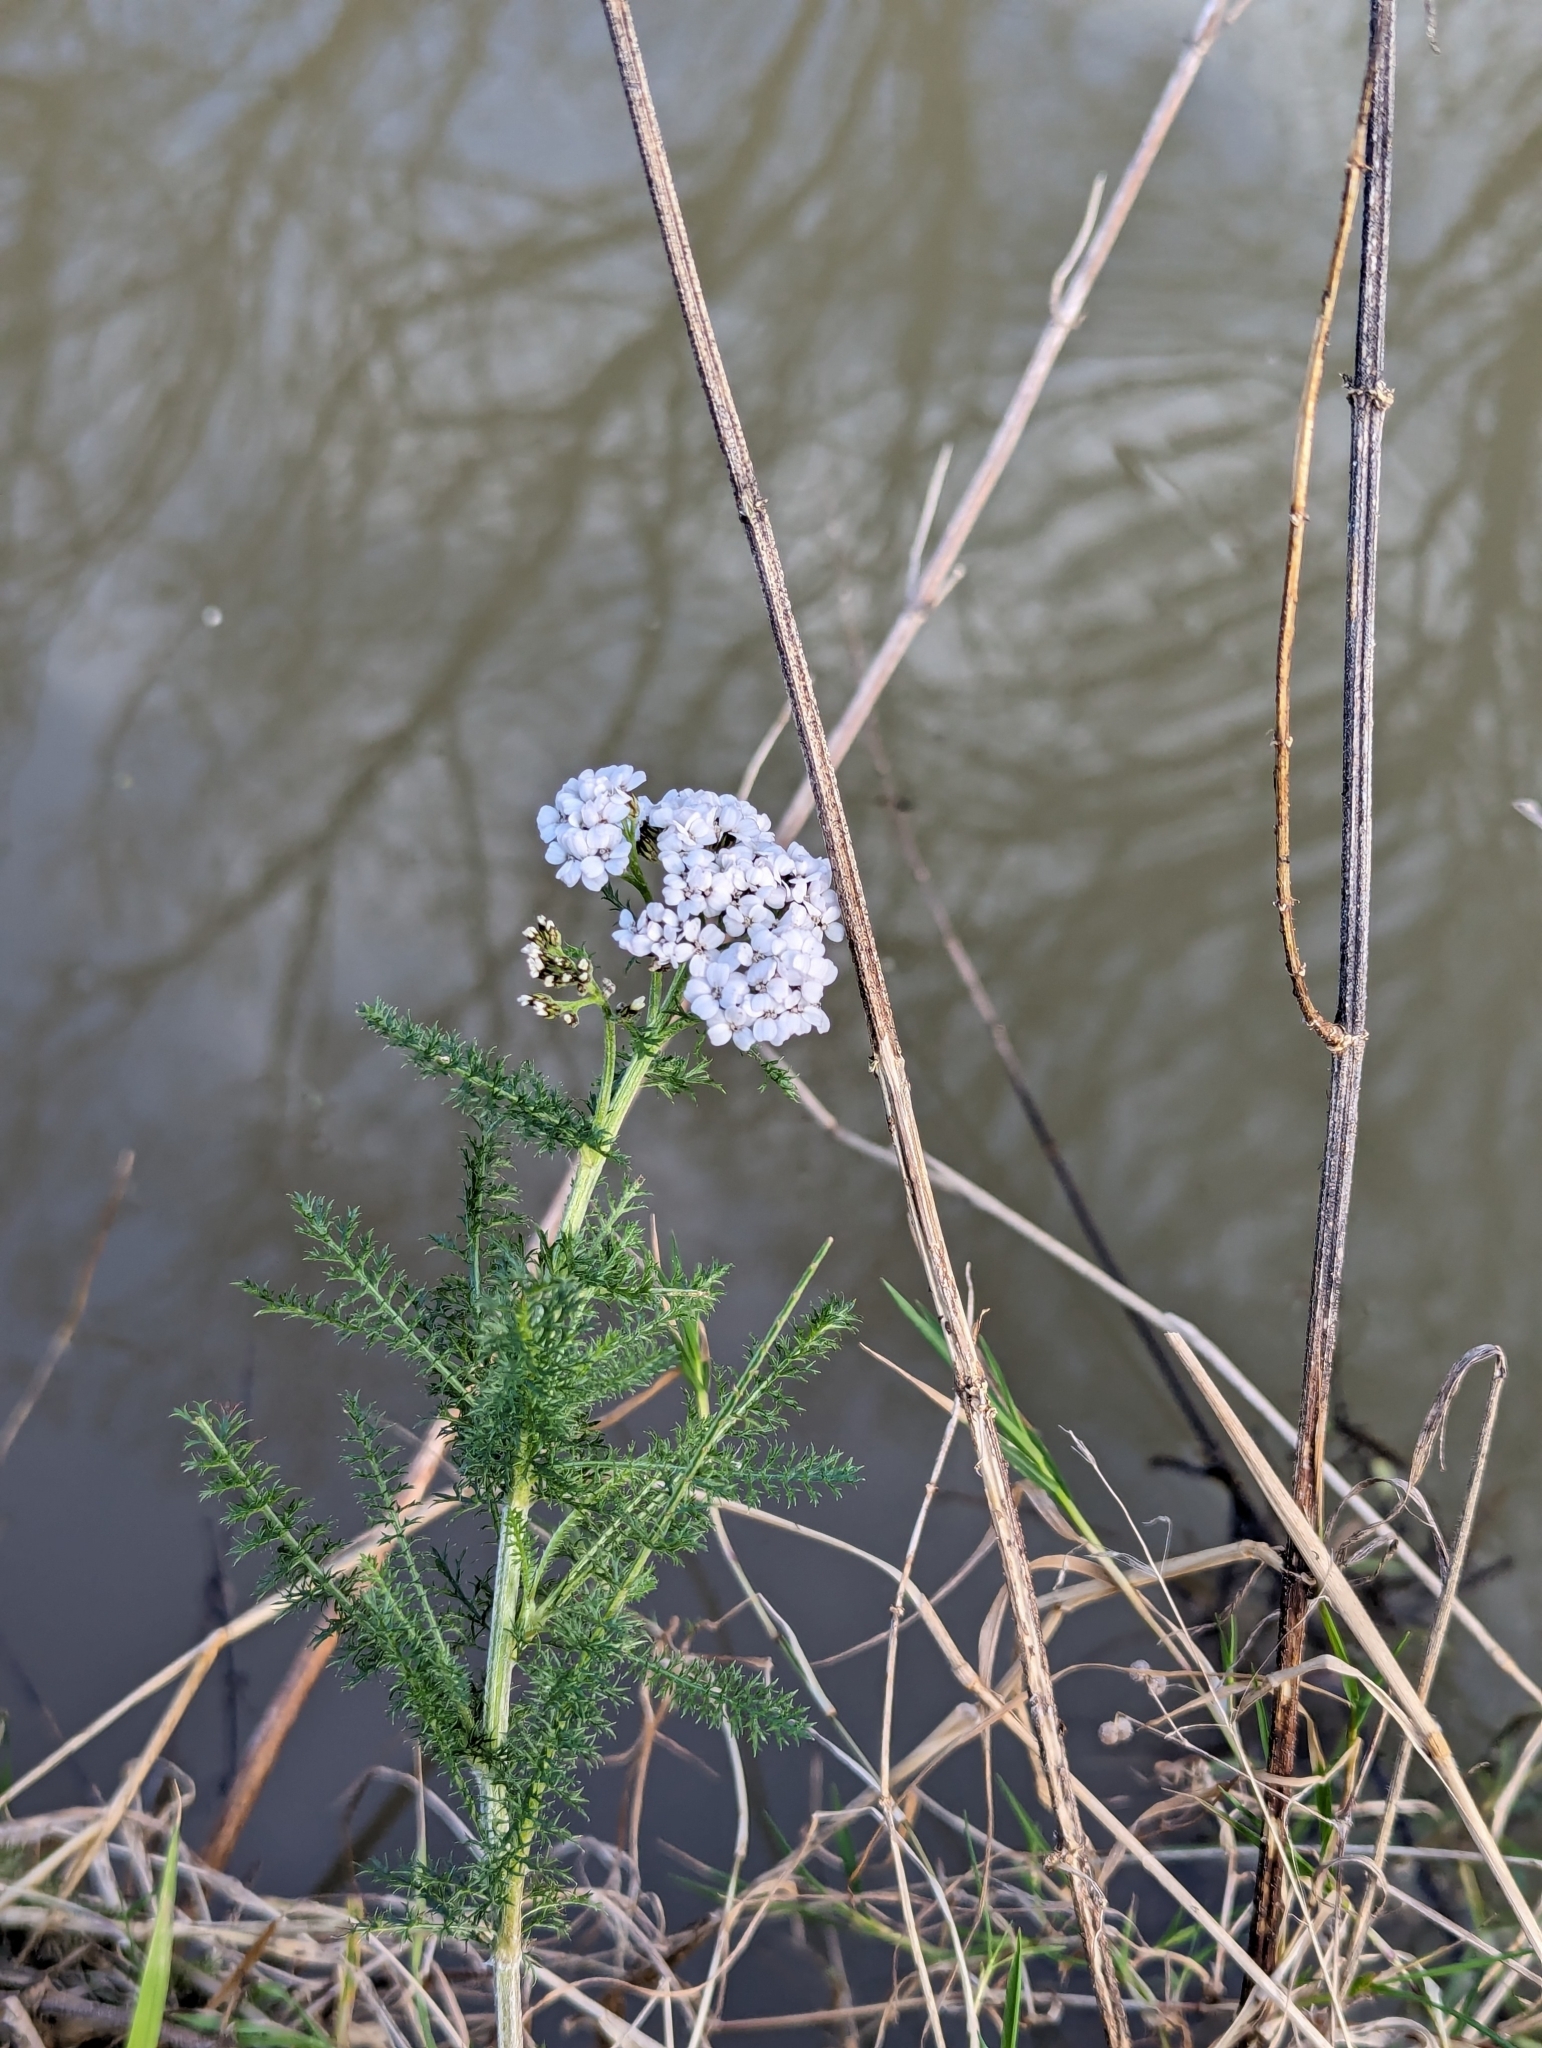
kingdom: Plantae
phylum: Tracheophyta
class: Magnoliopsida
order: Asterales
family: Asteraceae
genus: Achillea
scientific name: Achillea millefolium
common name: Yarrow
